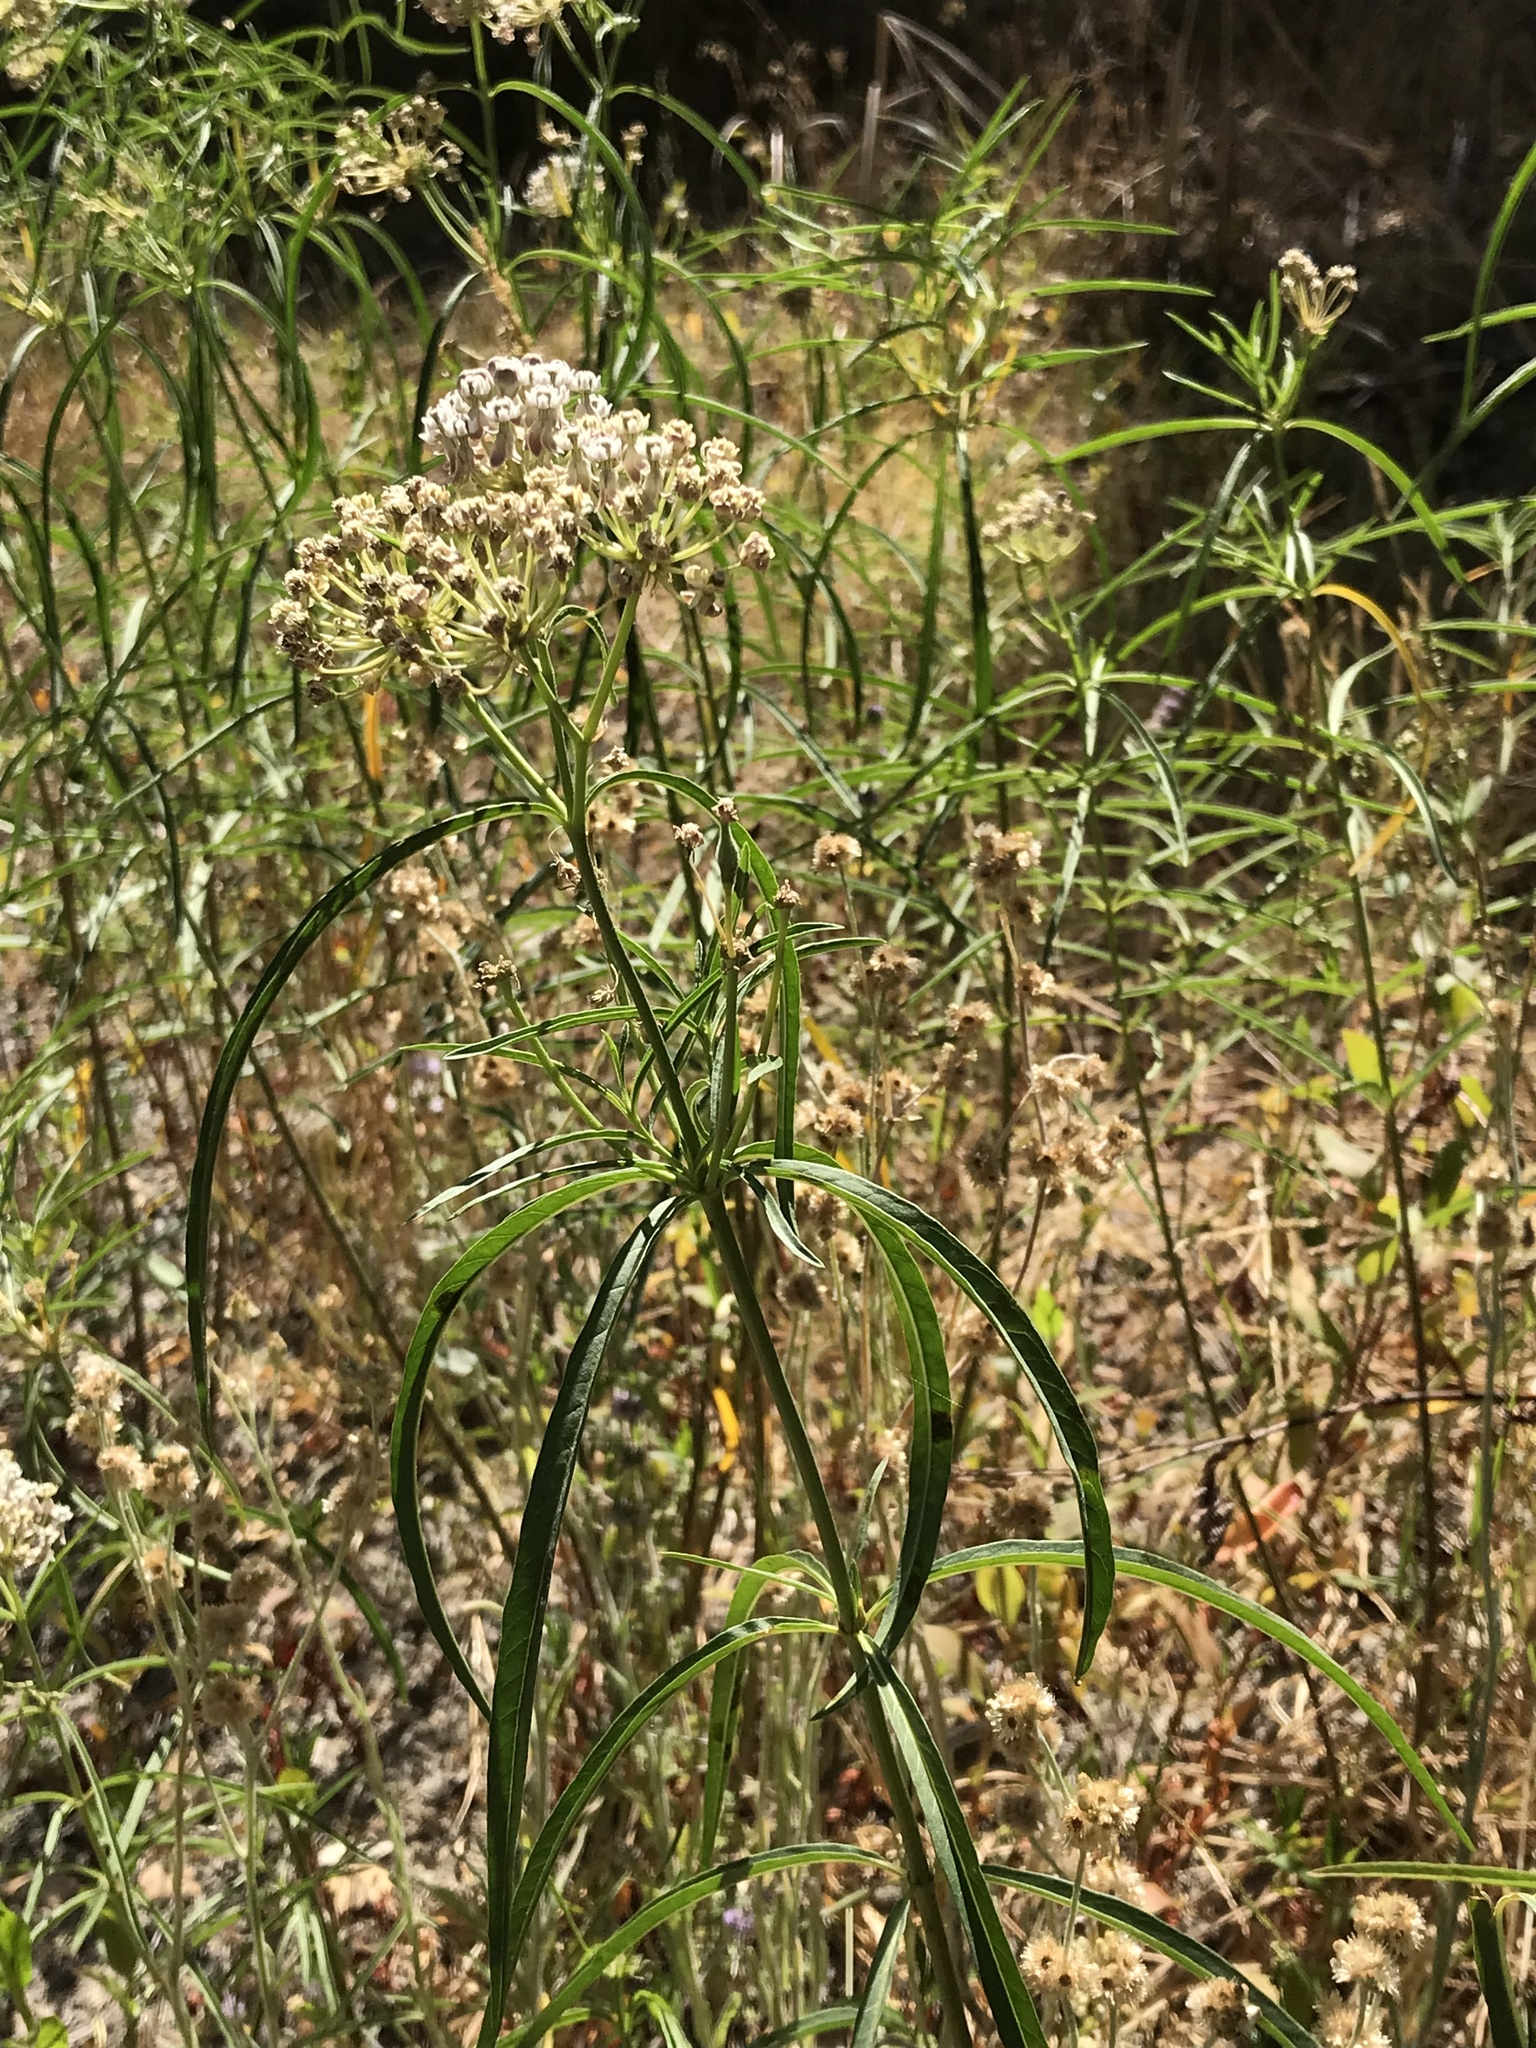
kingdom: Plantae
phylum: Tracheophyta
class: Magnoliopsida
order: Gentianales
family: Apocynaceae
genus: Asclepias
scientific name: Asclepias fascicularis
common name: Mexican milkweed
